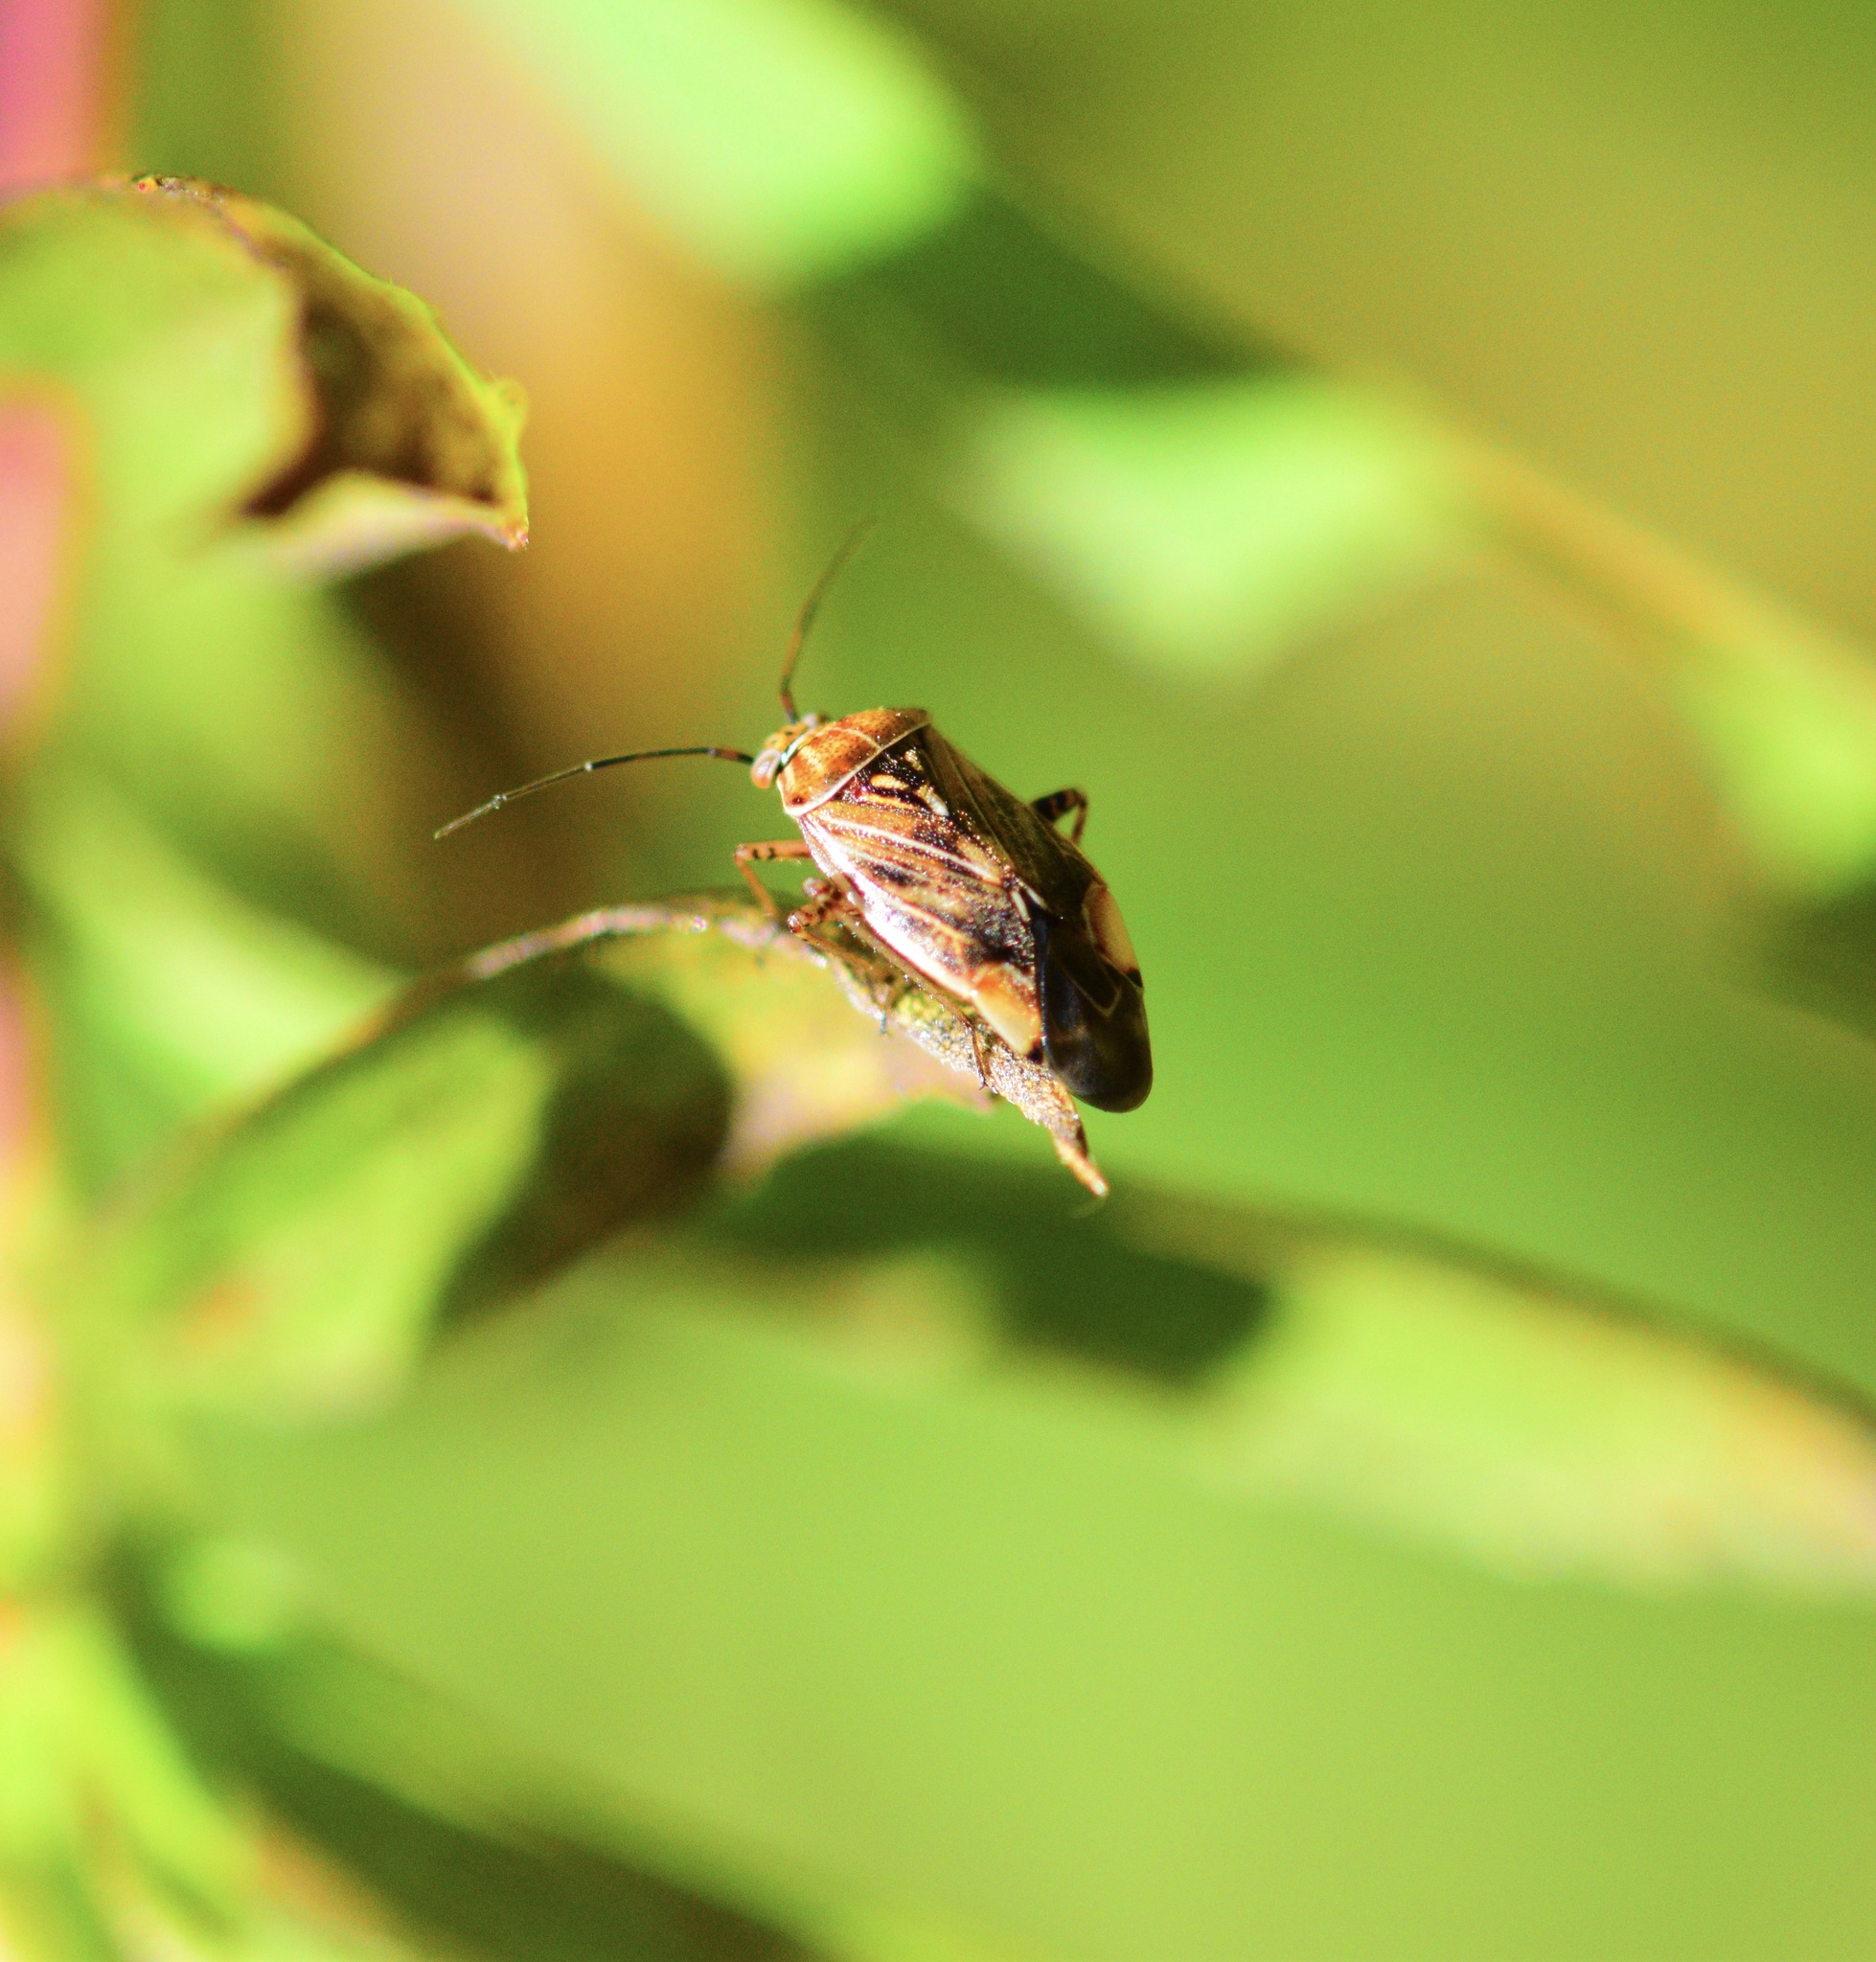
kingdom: Animalia
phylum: Arthropoda
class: Insecta
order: Hemiptera
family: Miridae
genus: Lygus
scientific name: Lygus lineolaris
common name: North american tarnished plant bug
